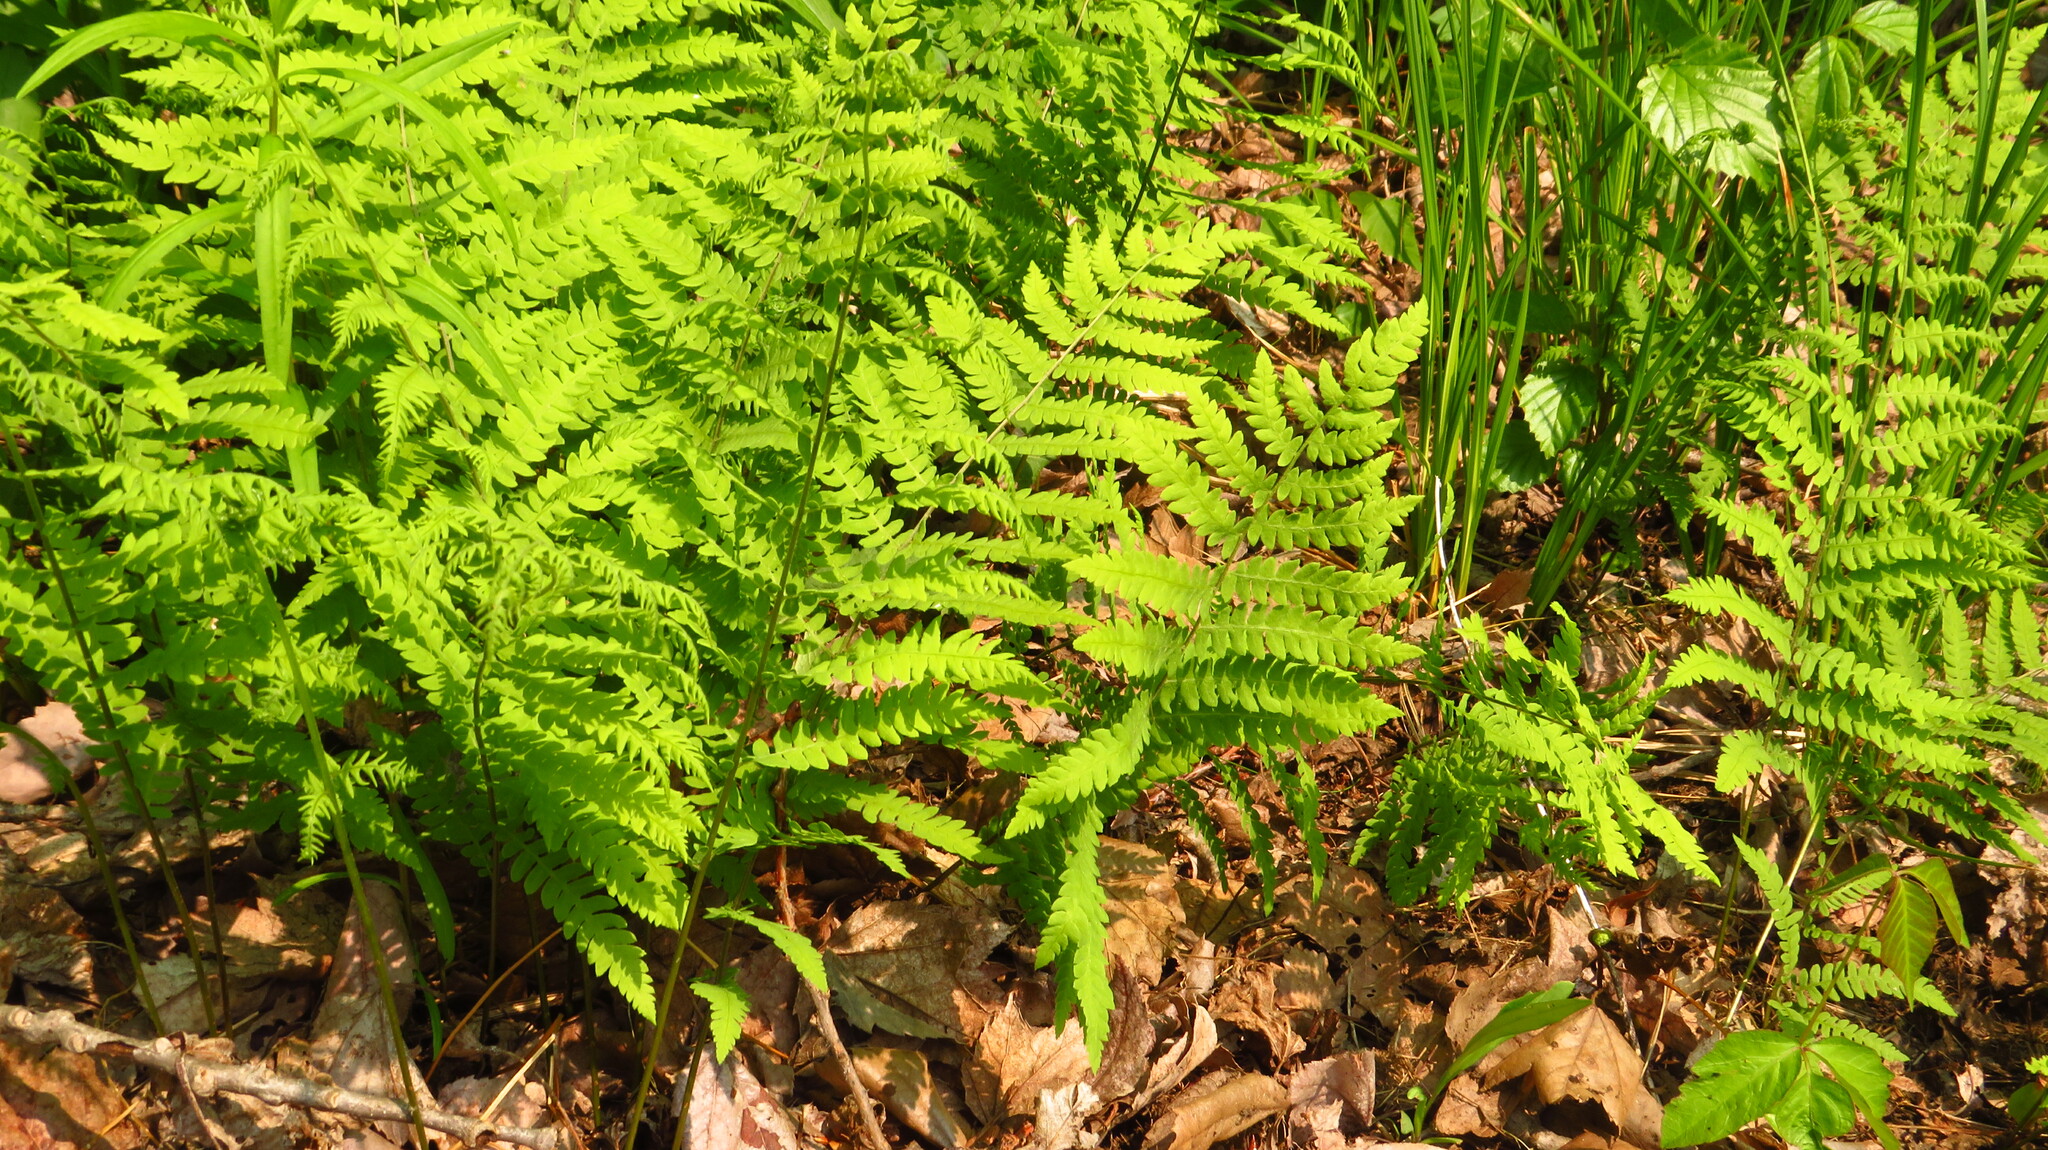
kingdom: Plantae
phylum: Tracheophyta
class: Polypodiopsida
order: Polypodiales
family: Thelypteridaceae
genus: Thelypteris
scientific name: Thelypteris palustris
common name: Marsh fern
